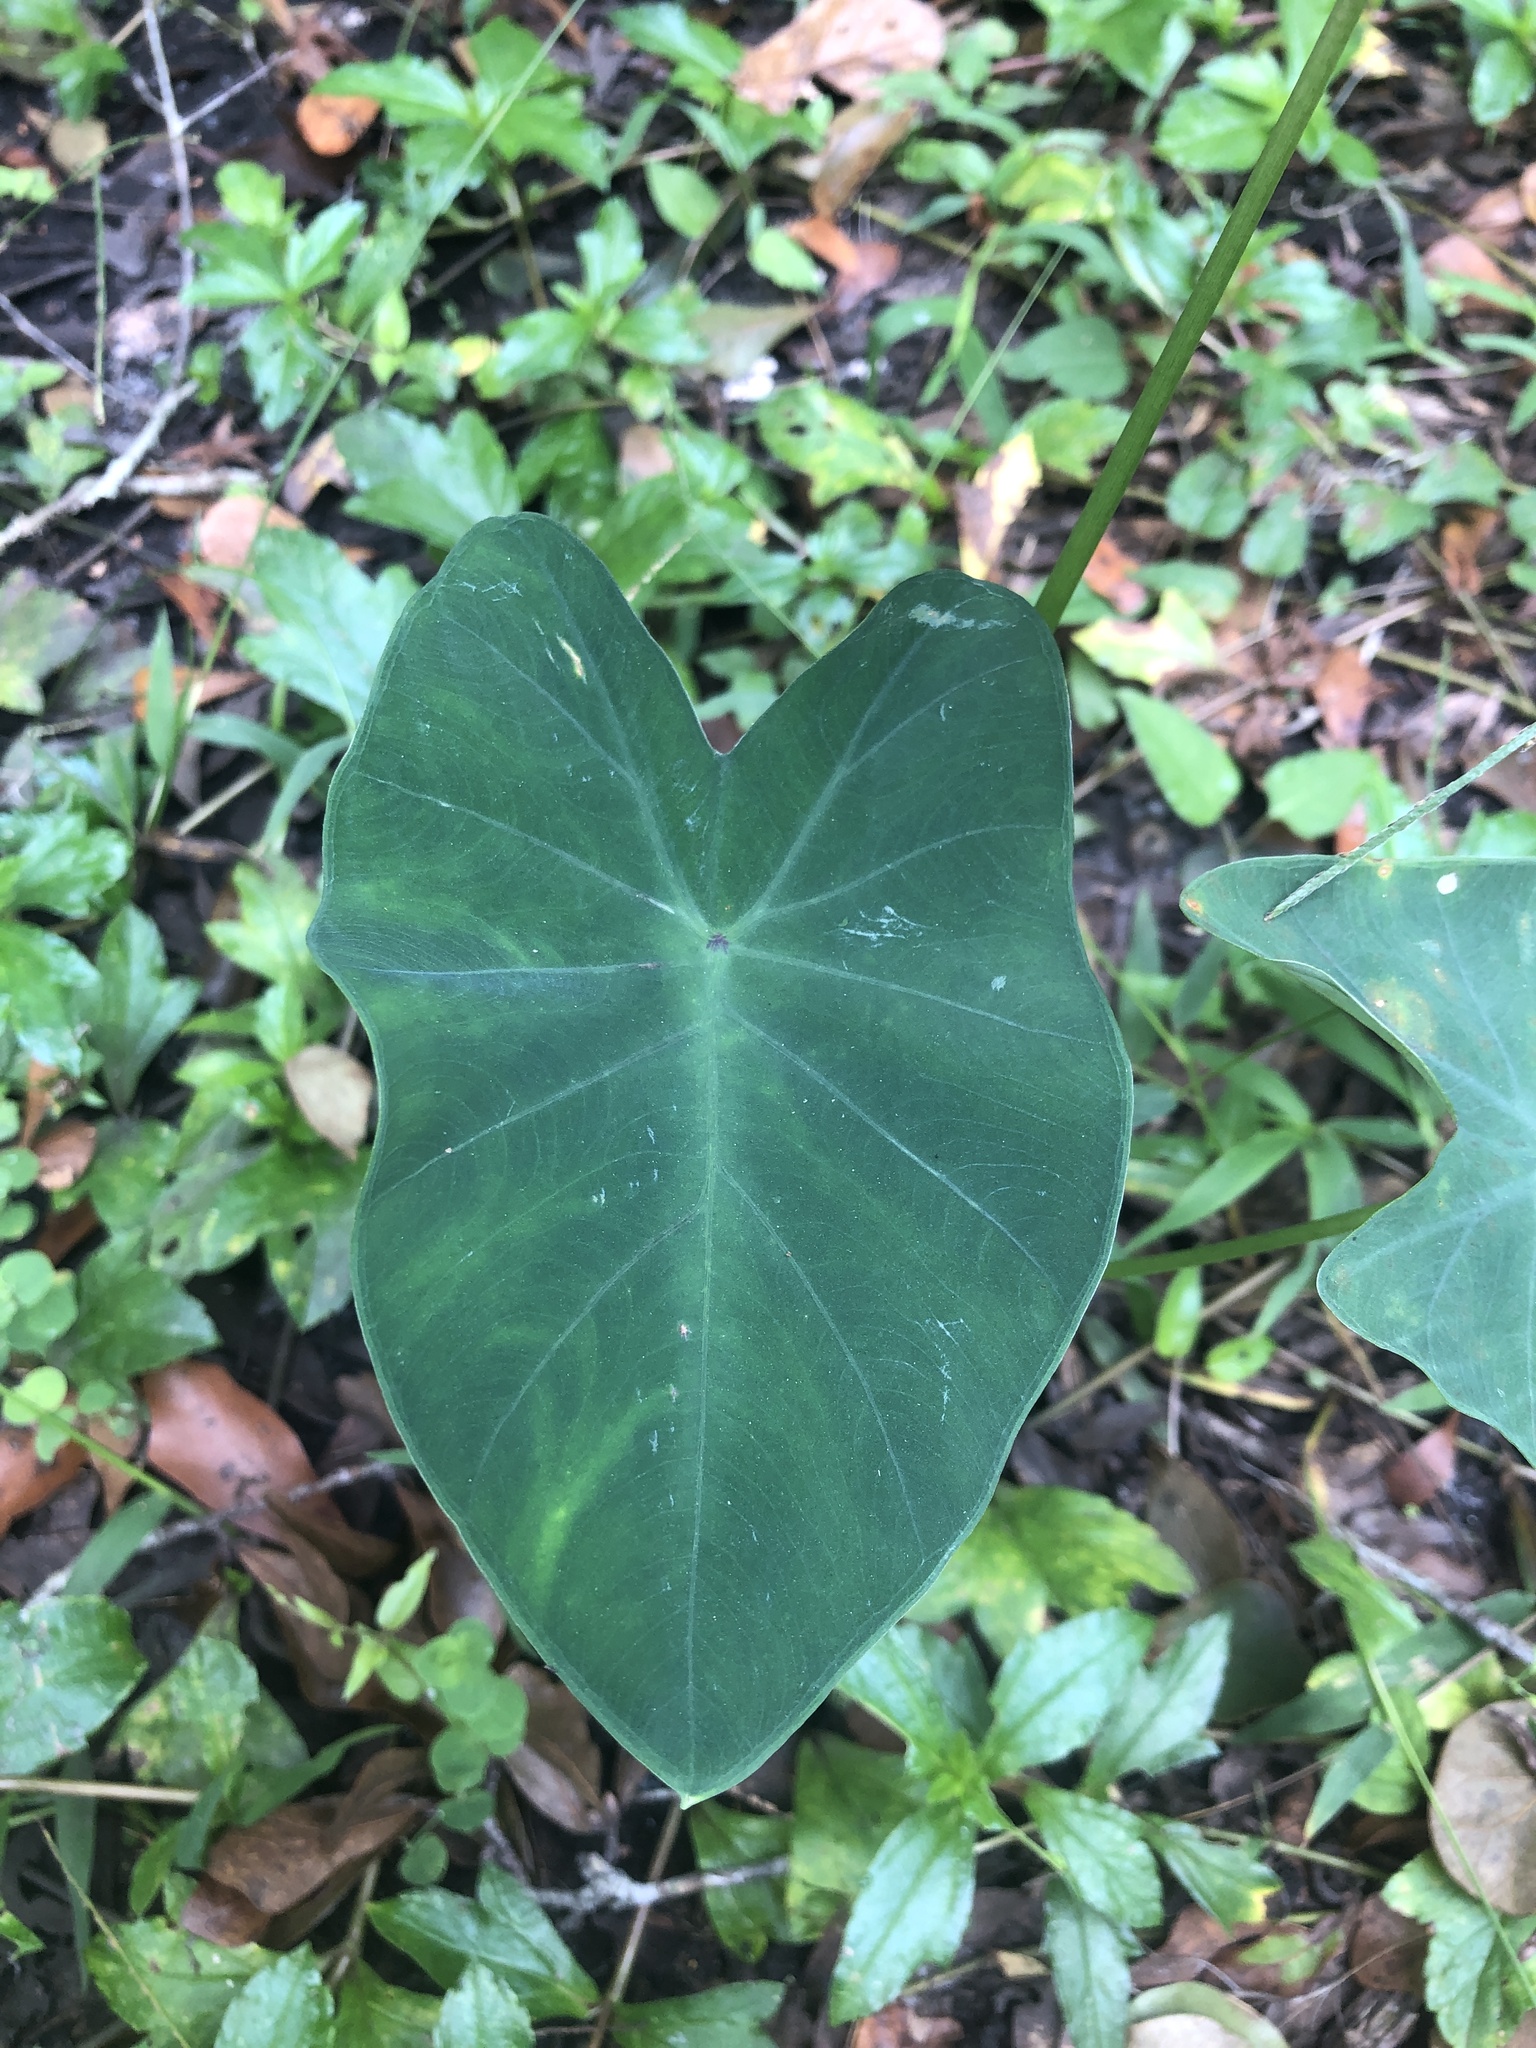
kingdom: Plantae
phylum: Tracheophyta
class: Liliopsida
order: Alismatales
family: Araceae
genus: Colocasia
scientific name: Colocasia esculenta
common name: Taro
